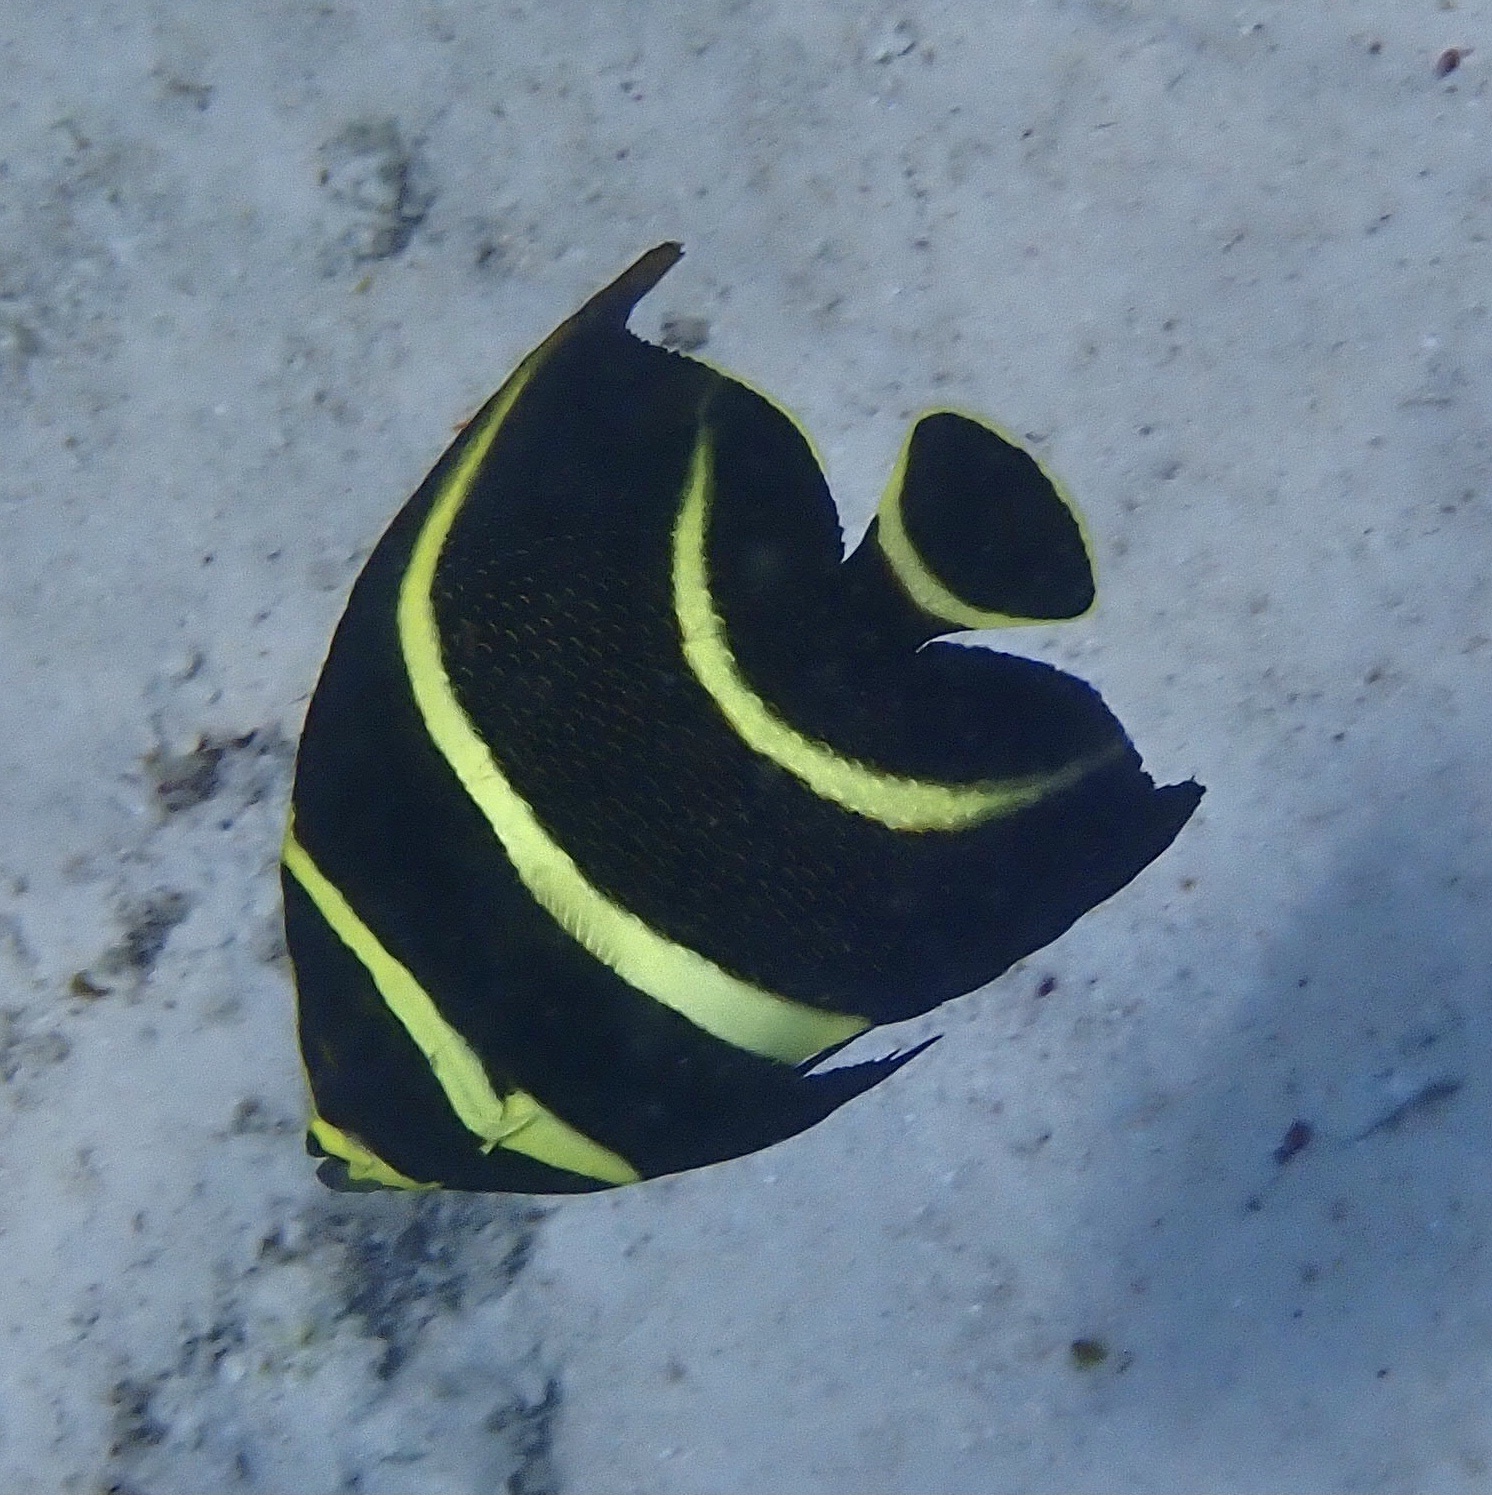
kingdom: Animalia
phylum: Chordata
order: Perciformes
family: Pomacanthidae
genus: Pomacanthus
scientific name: Pomacanthus paru
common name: French angelfish
